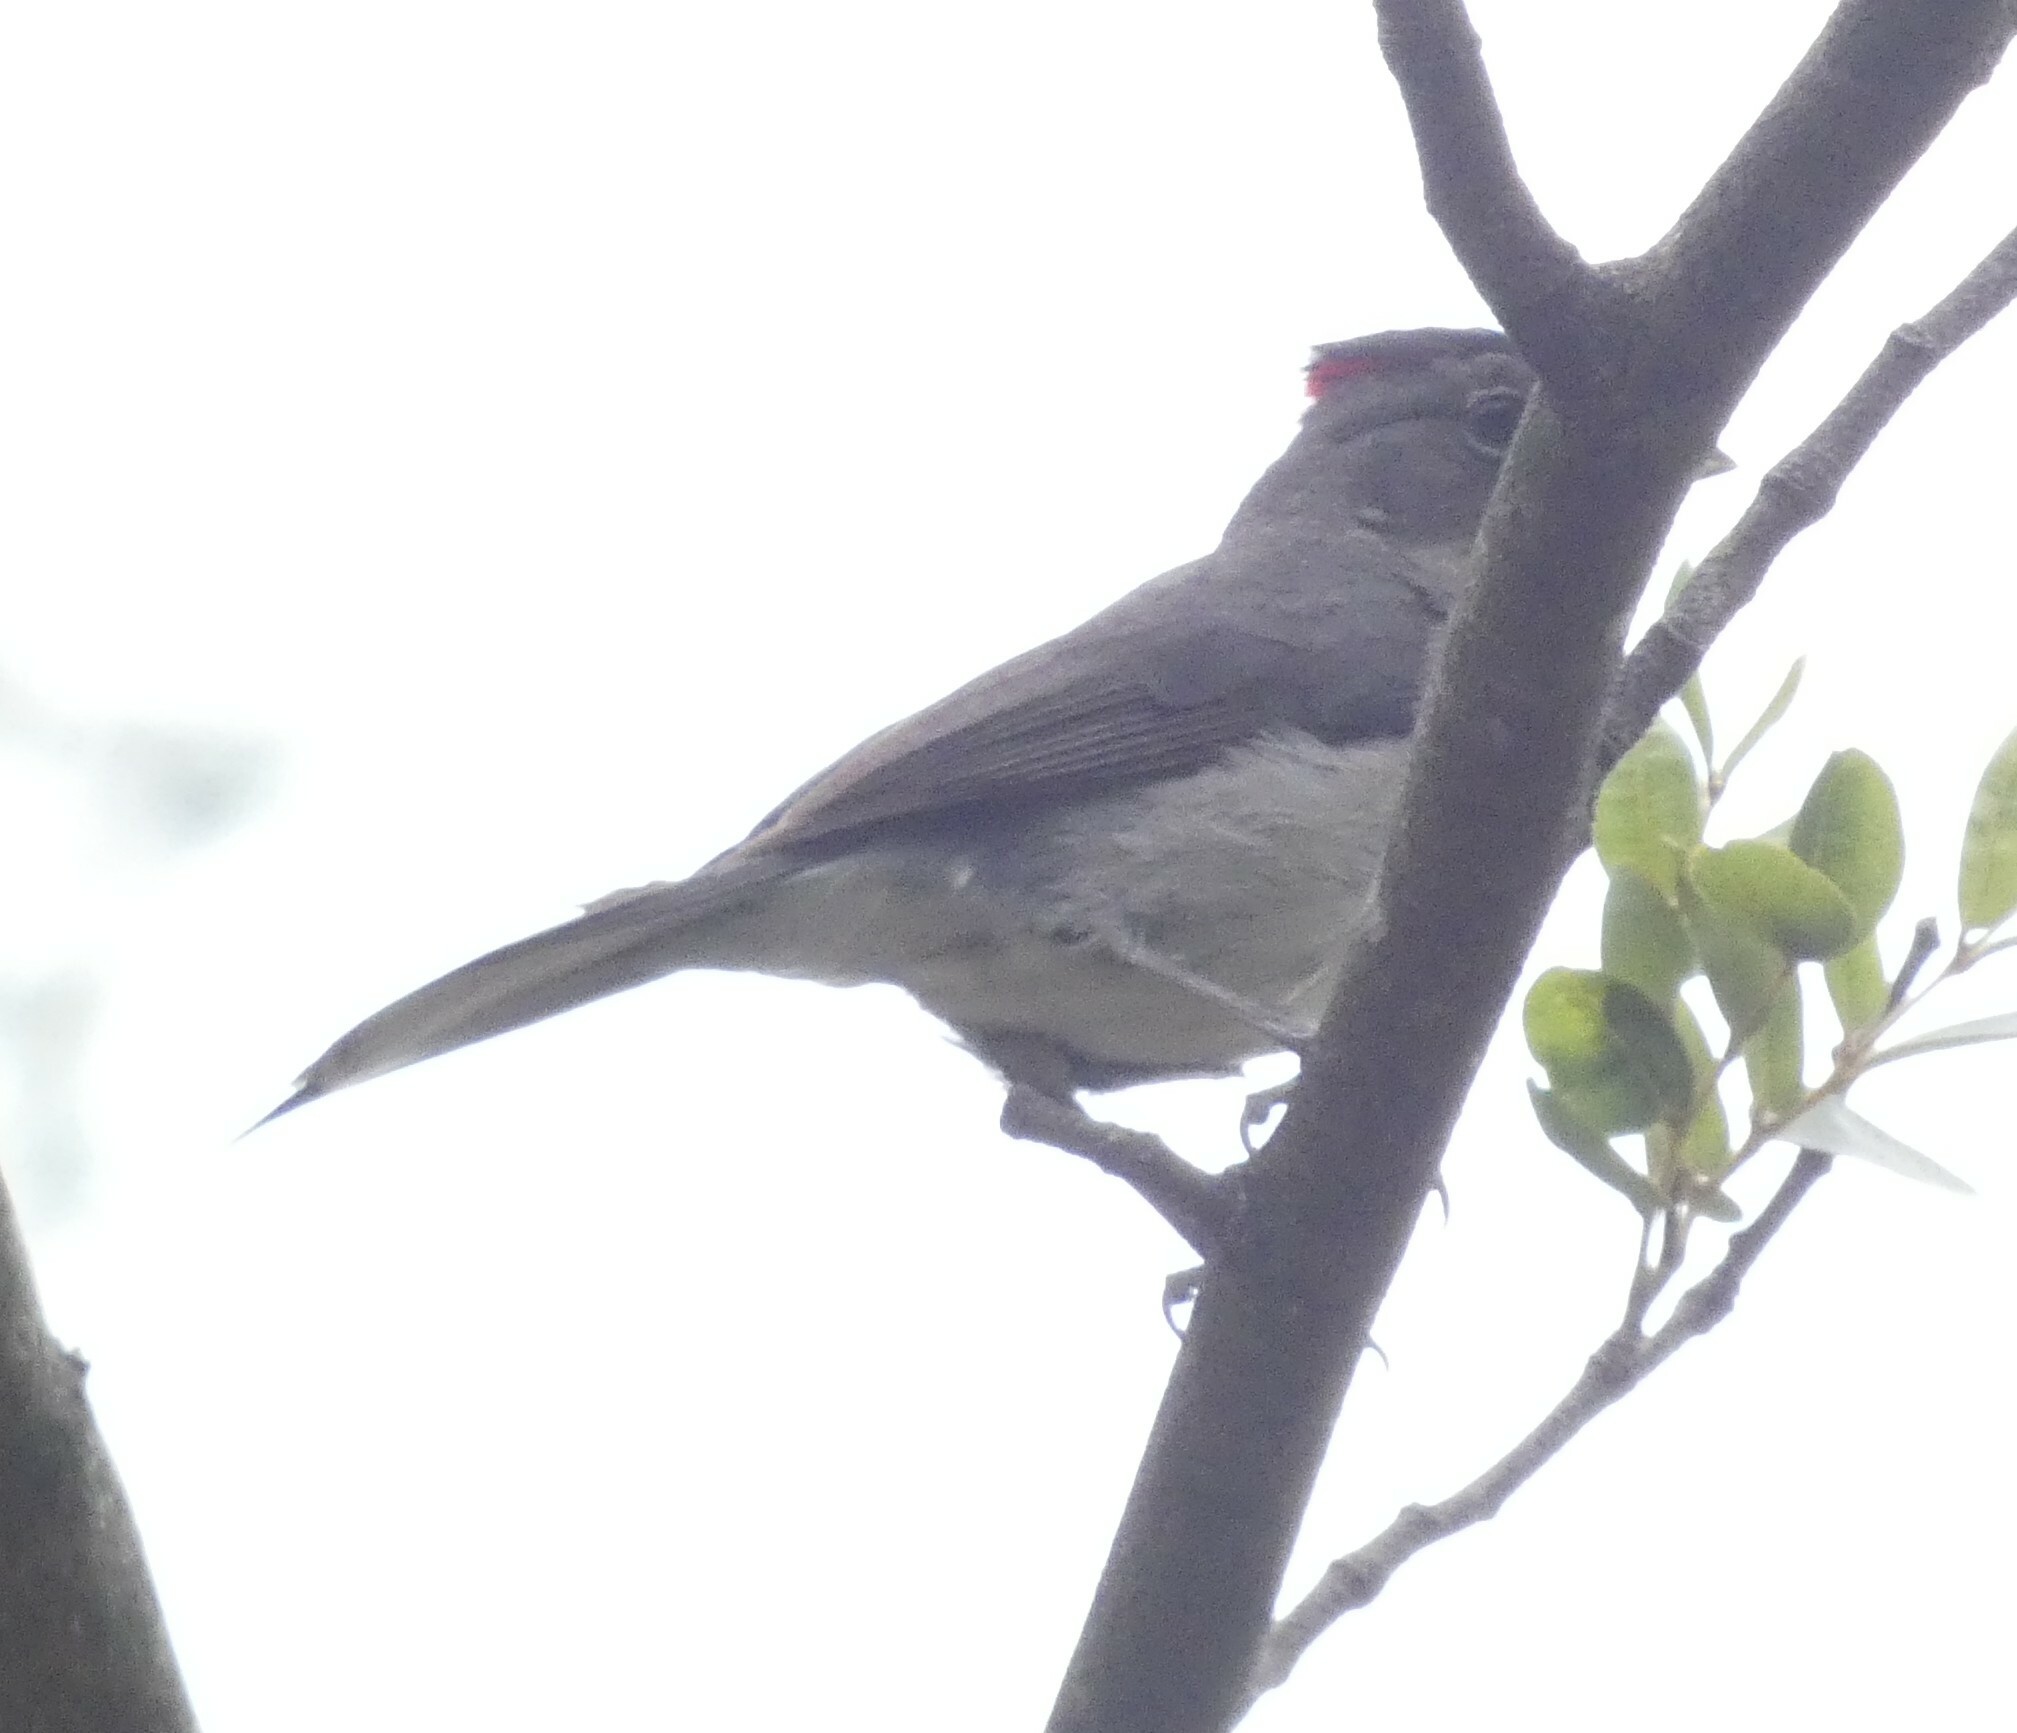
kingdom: Animalia
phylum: Chordata
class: Aves
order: Passeriformes
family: Thraupidae
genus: Coryphospingus
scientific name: Coryphospingus pileatus
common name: Grey pileated finch
